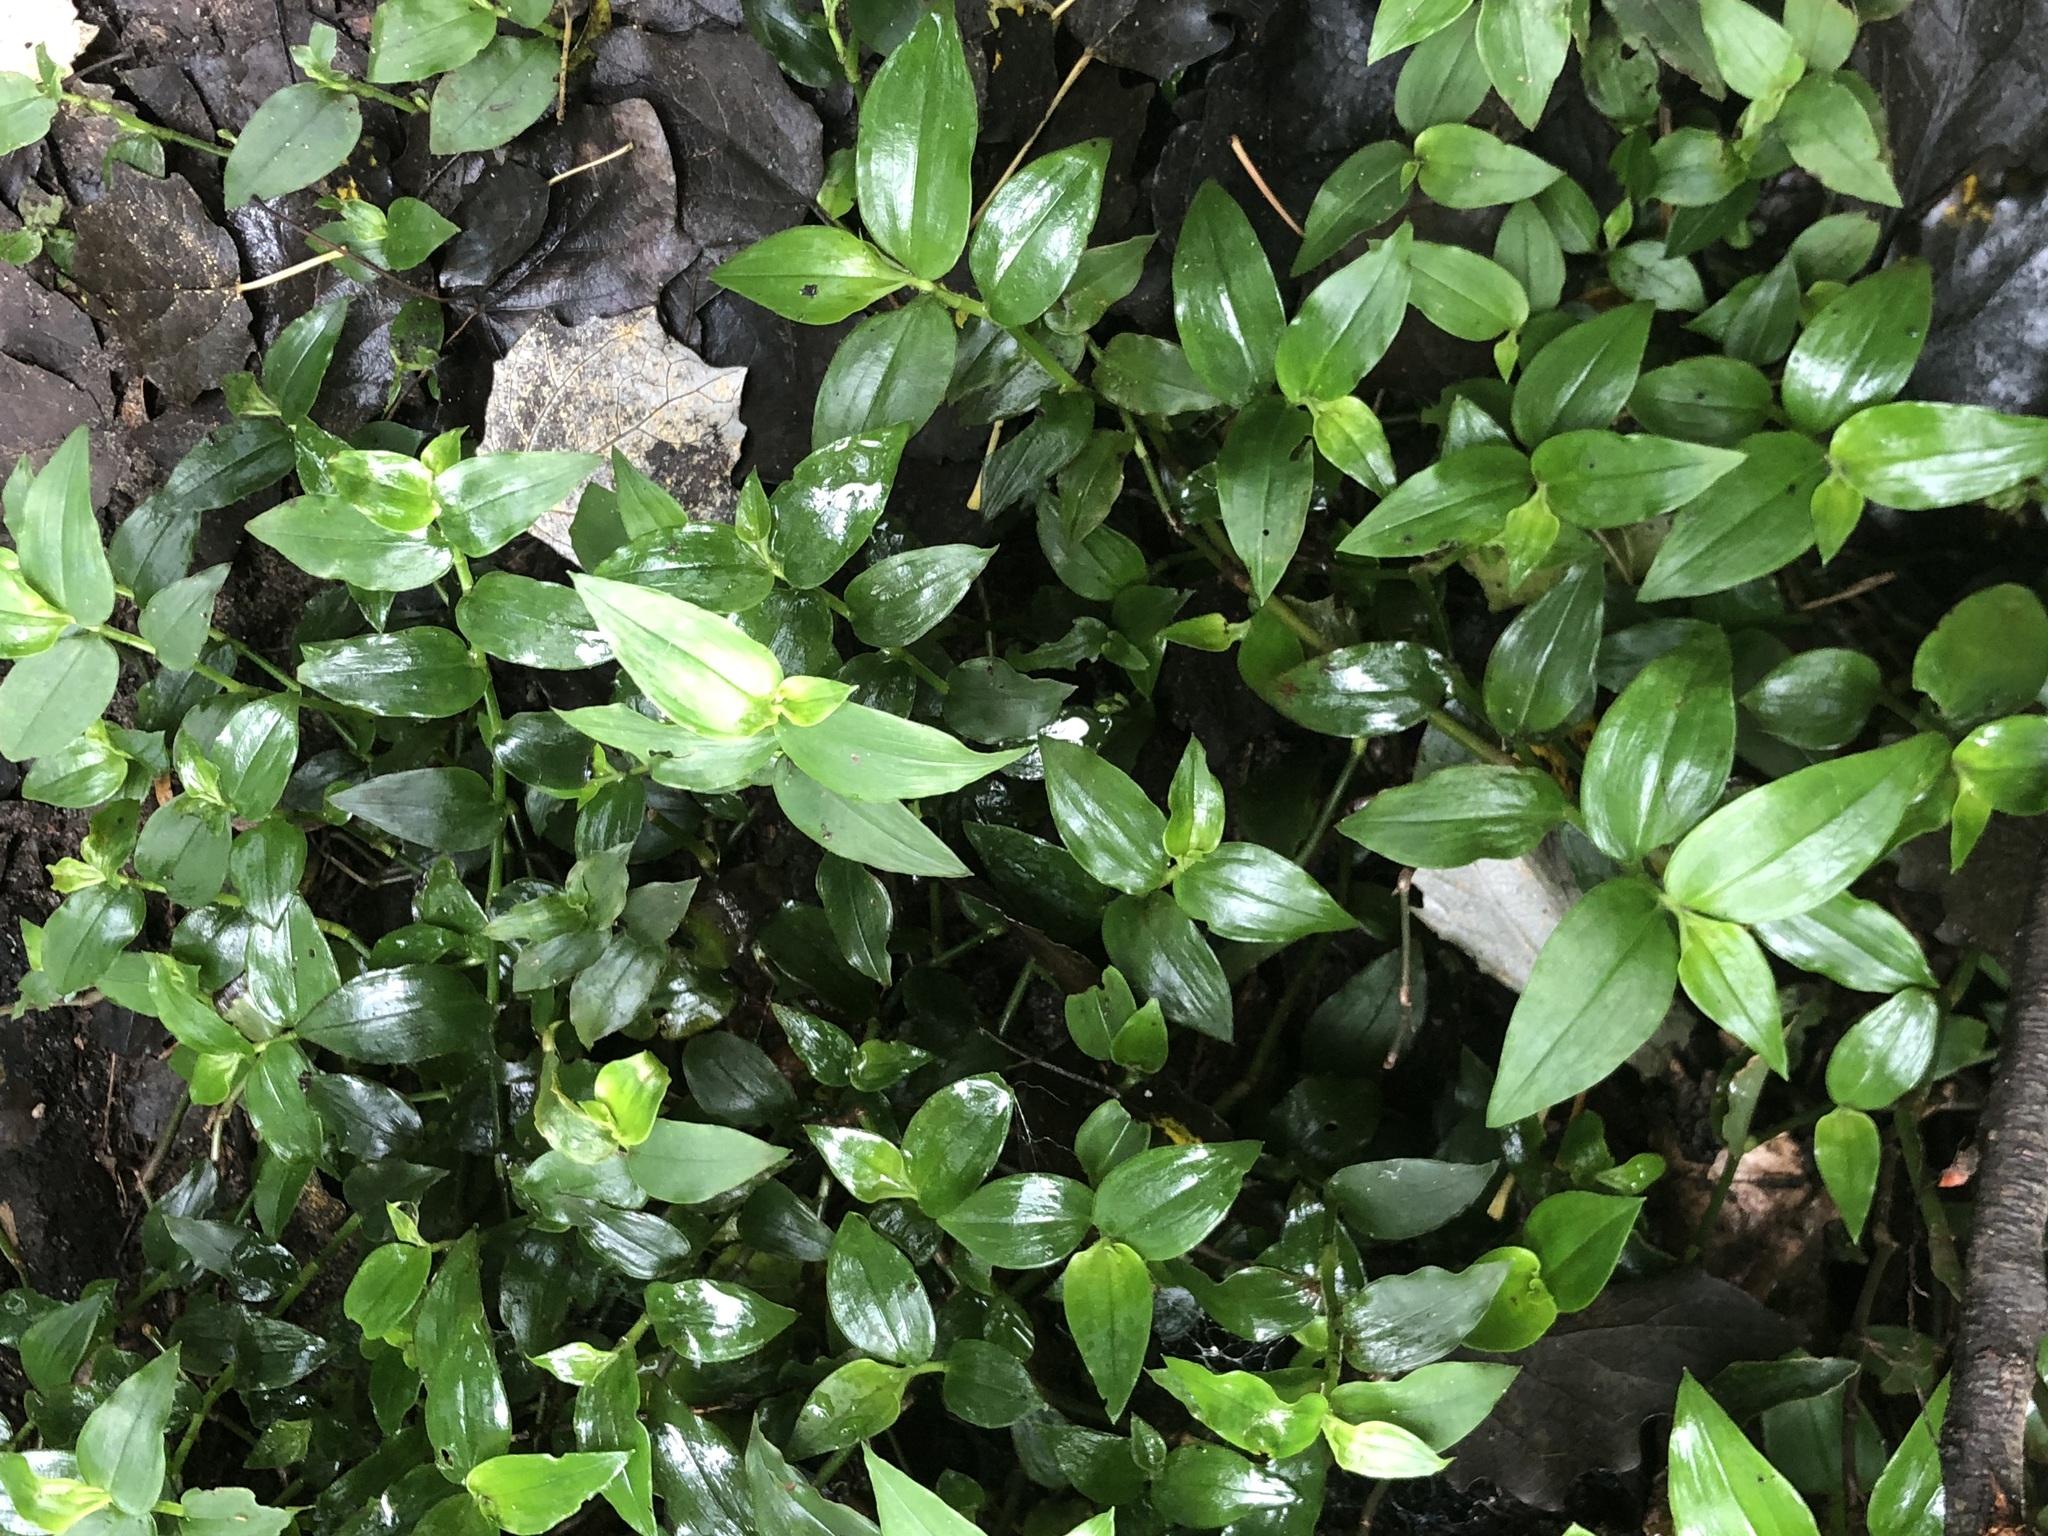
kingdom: Plantae
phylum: Tracheophyta
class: Liliopsida
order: Commelinales
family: Commelinaceae
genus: Tradescantia
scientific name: Tradescantia fluminensis
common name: Wandering-jew
